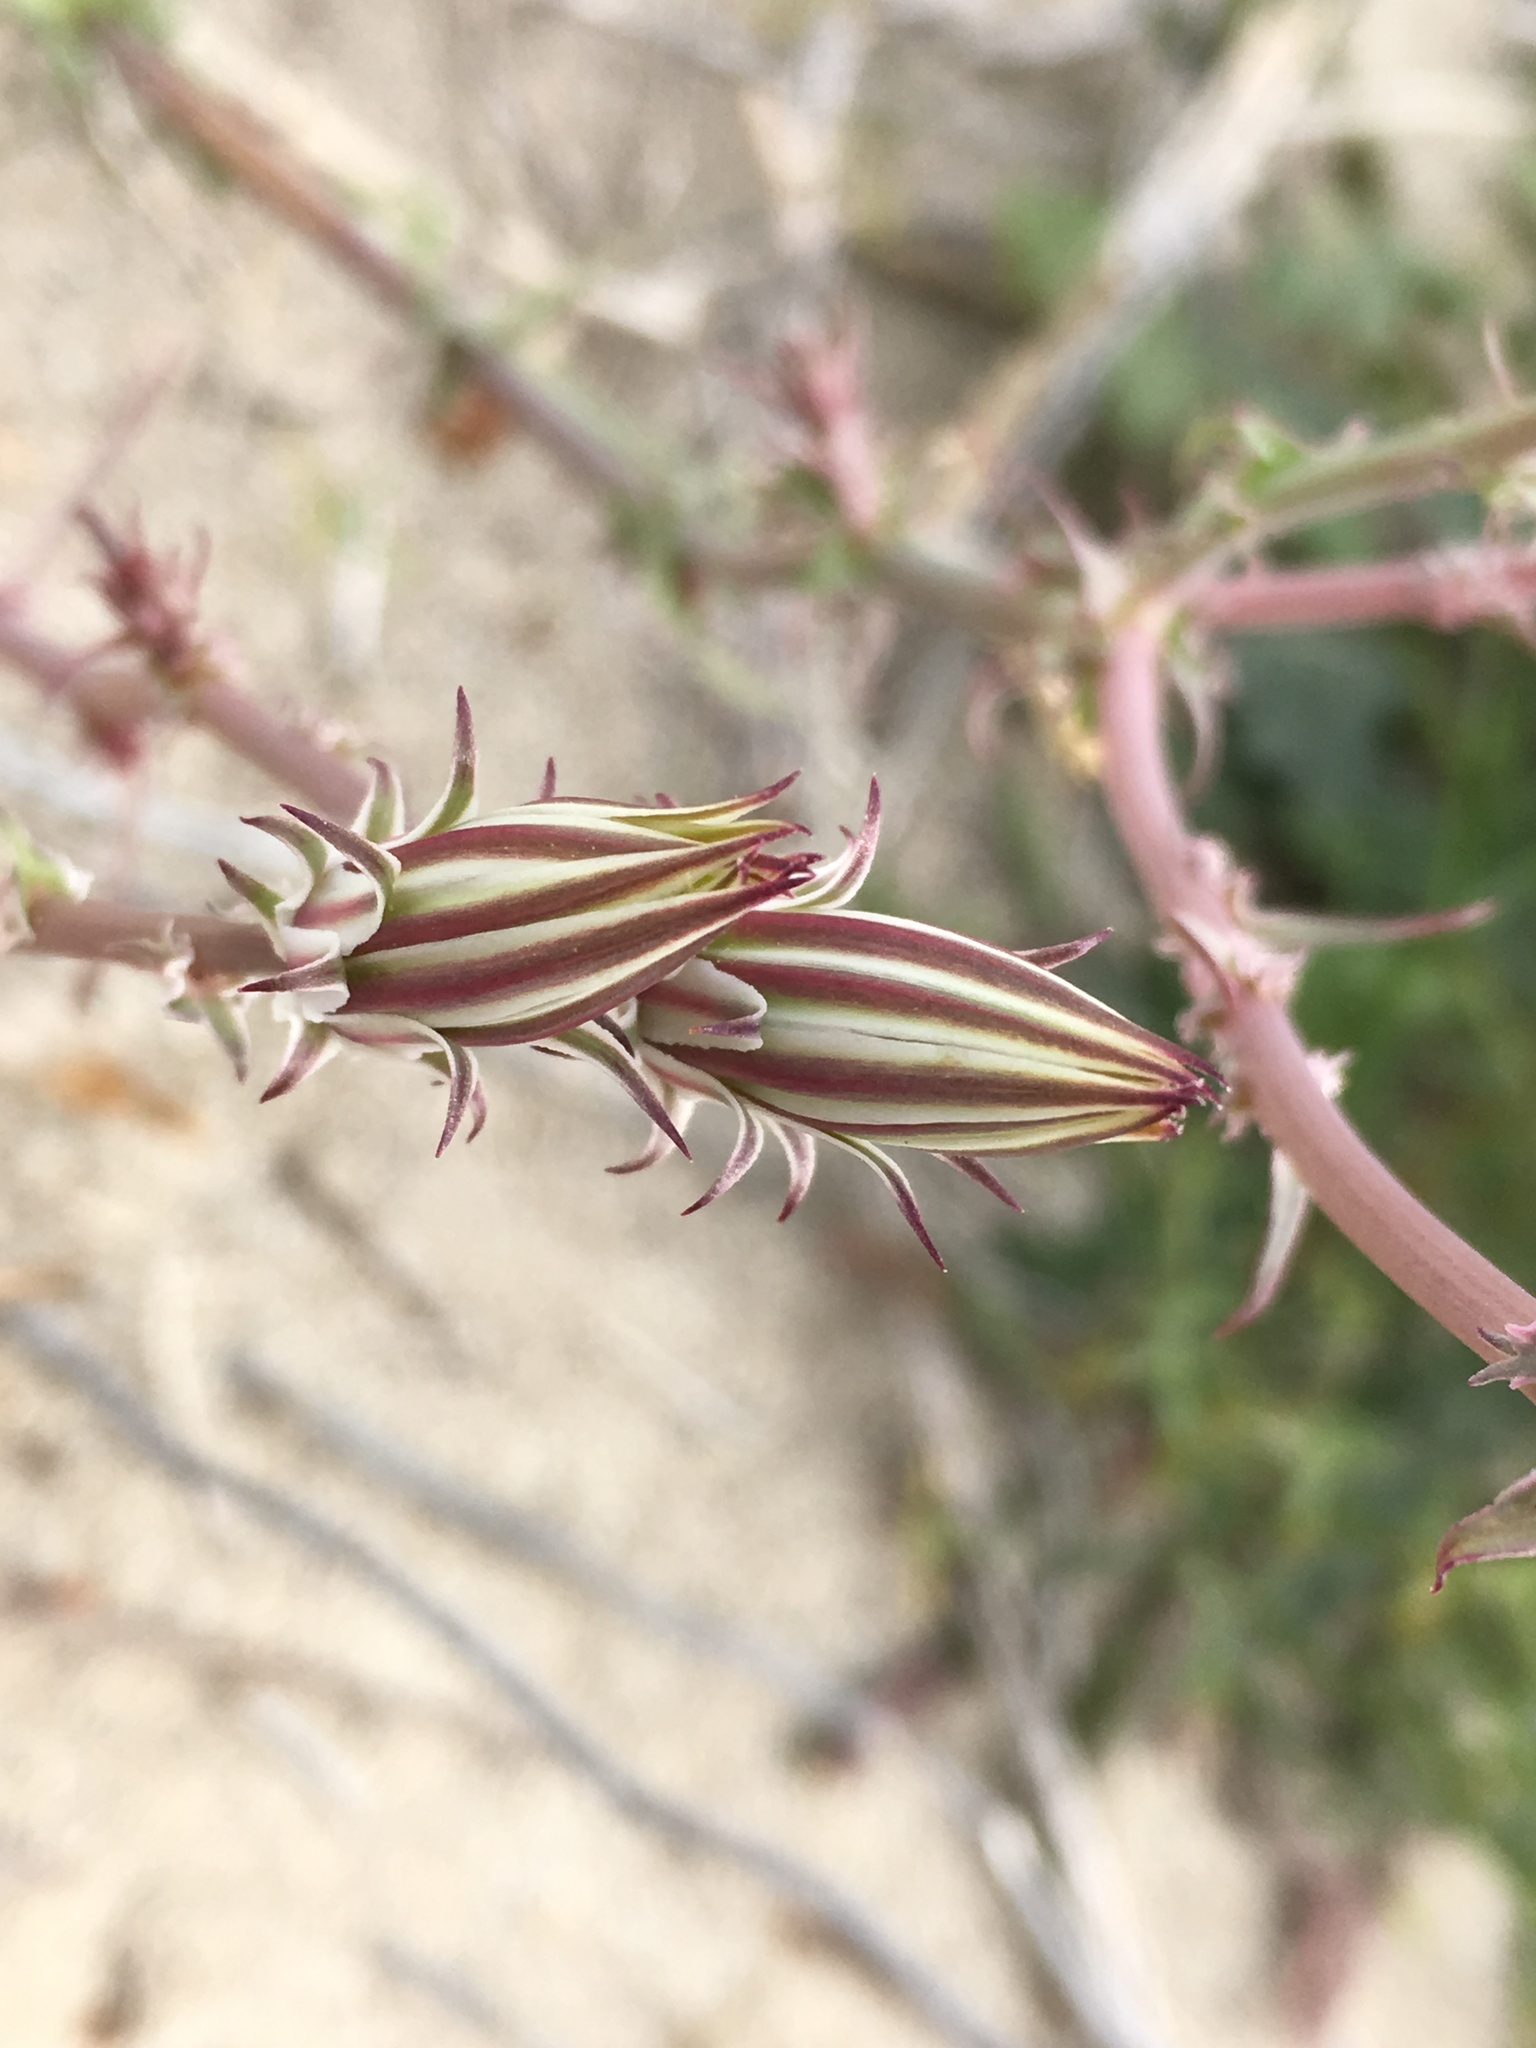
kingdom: Plantae
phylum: Tracheophyta
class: Magnoliopsida
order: Asterales
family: Asteraceae
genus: Rafinesquia
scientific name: Rafinesquia neomexicana
